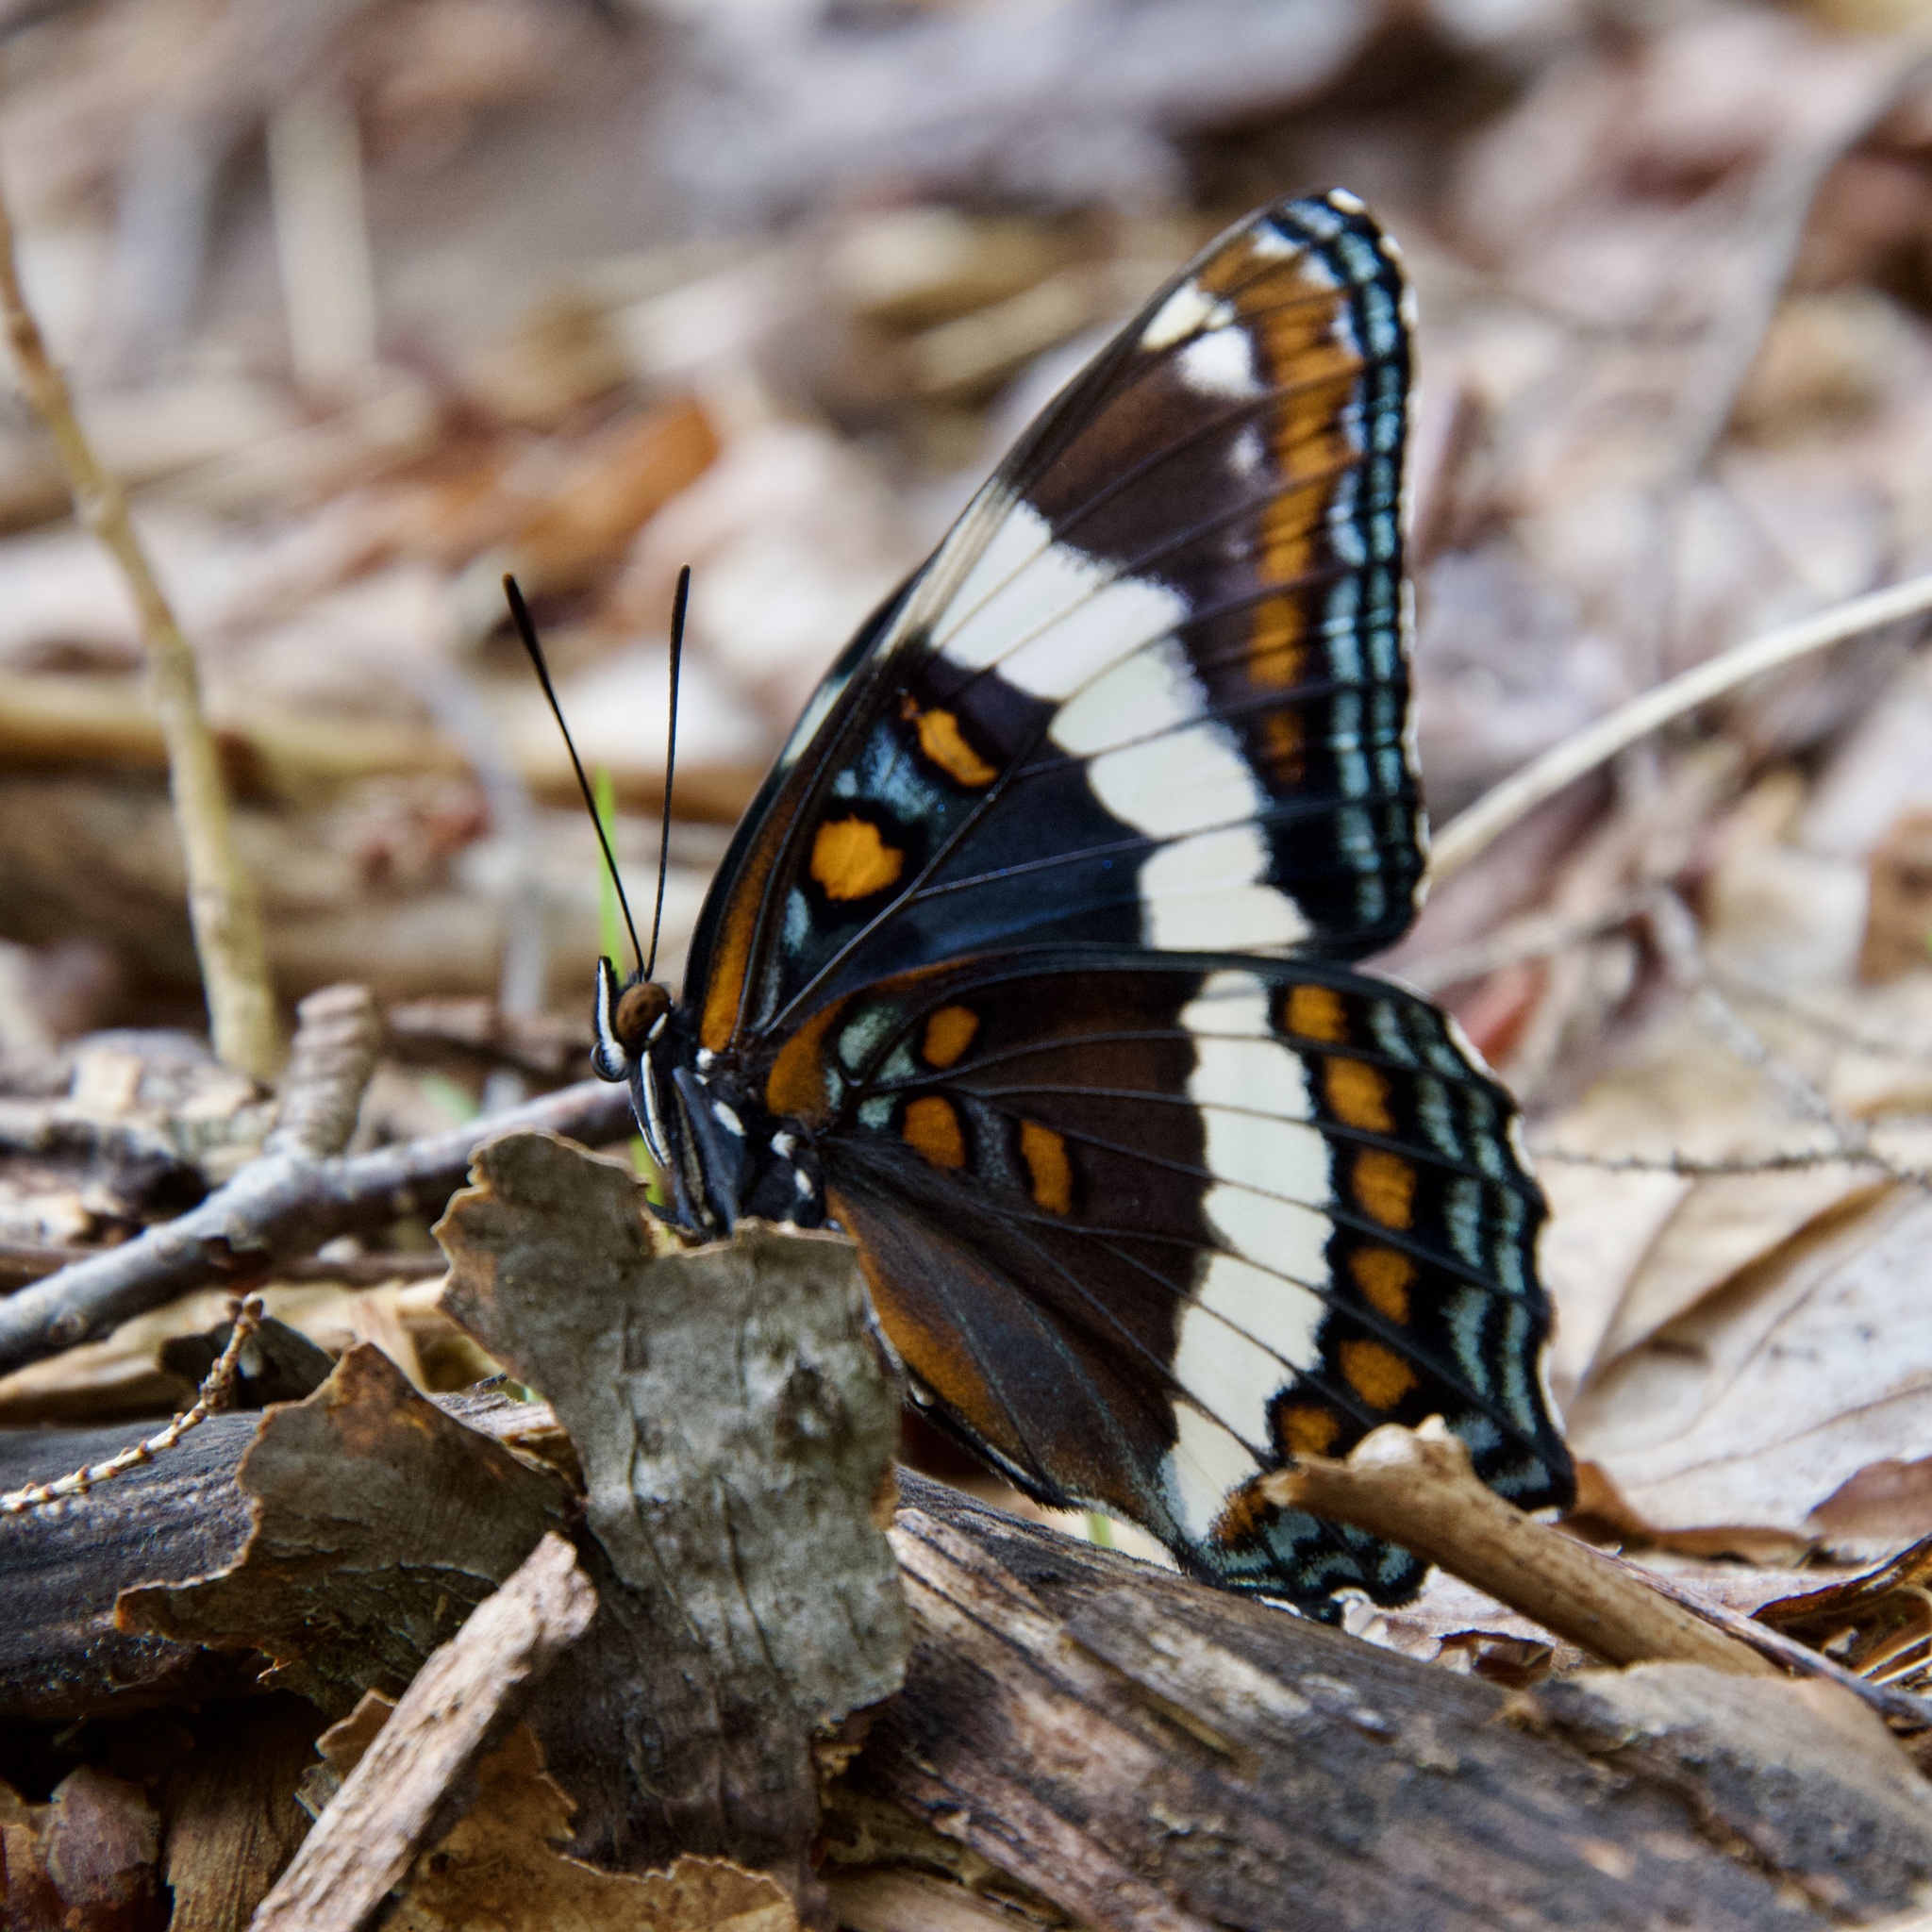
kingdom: Animalia
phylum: Arthropoda
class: Insecta
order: Lepidoptera
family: Nymphalidae
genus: Limenitis
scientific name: Limenitis arthemis
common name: Red-spotted admiral
